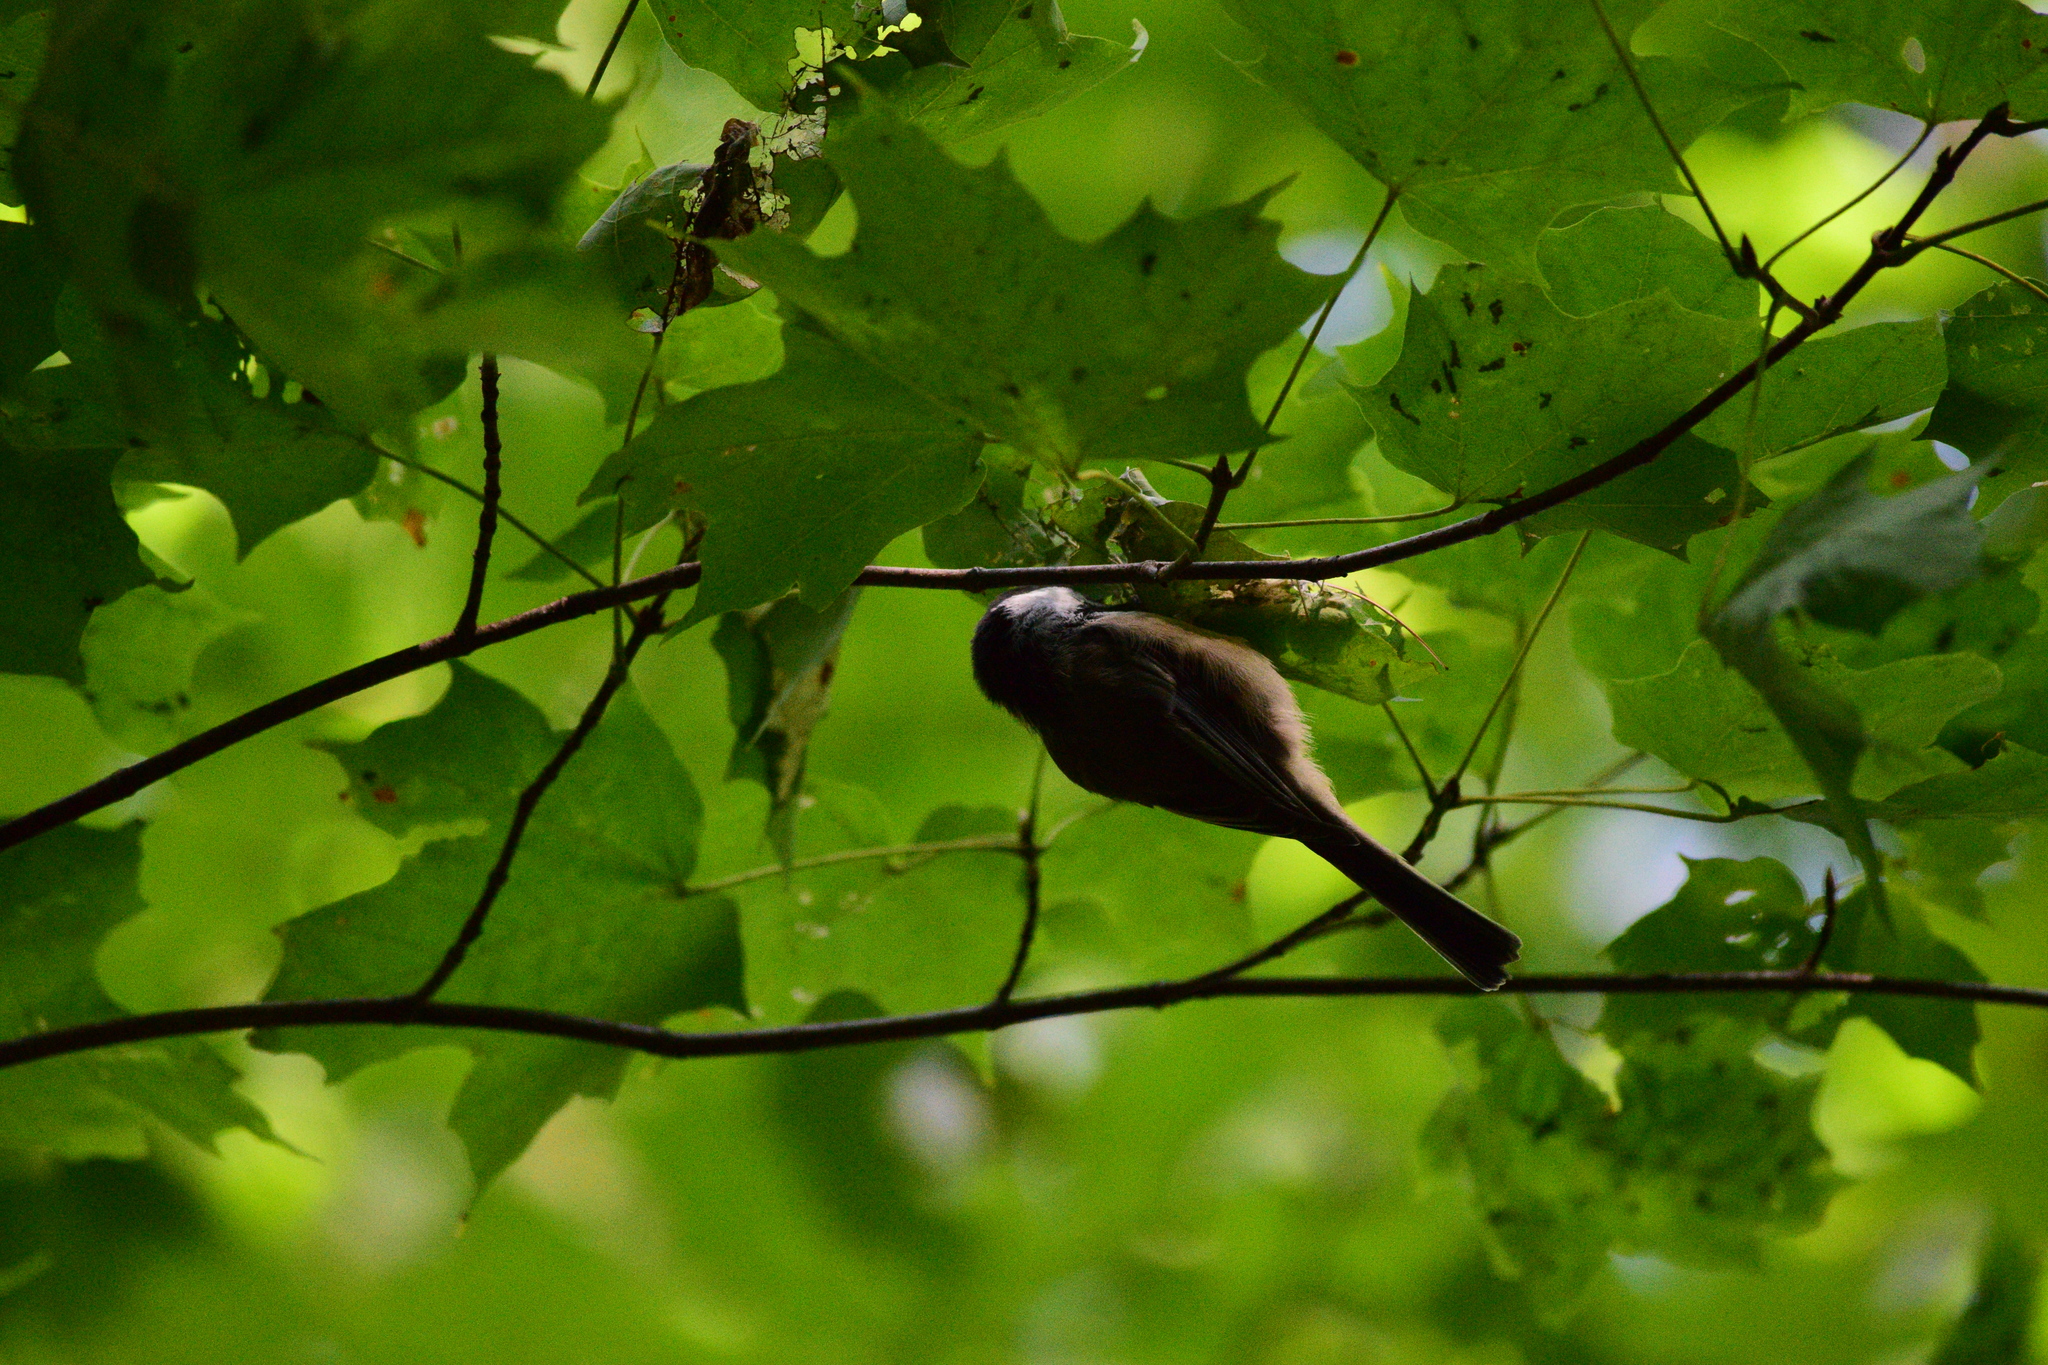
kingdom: Animalia
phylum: Chordata
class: Aves
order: Passeriformes
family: Paridae
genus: Poecile
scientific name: Poecile atricapillus
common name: Black-capped chickadee
